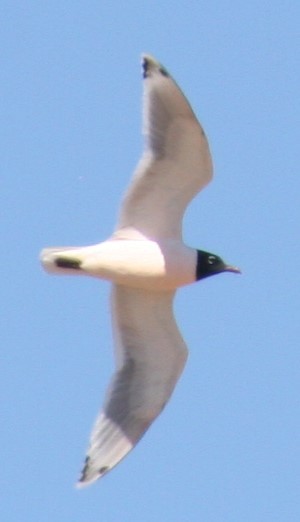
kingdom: Animalia
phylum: Chordata
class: Aves
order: Charadriiformes
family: Laridae
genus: Leucophaeus
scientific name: Leucophaeus pipixcan
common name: Franklin's gull
